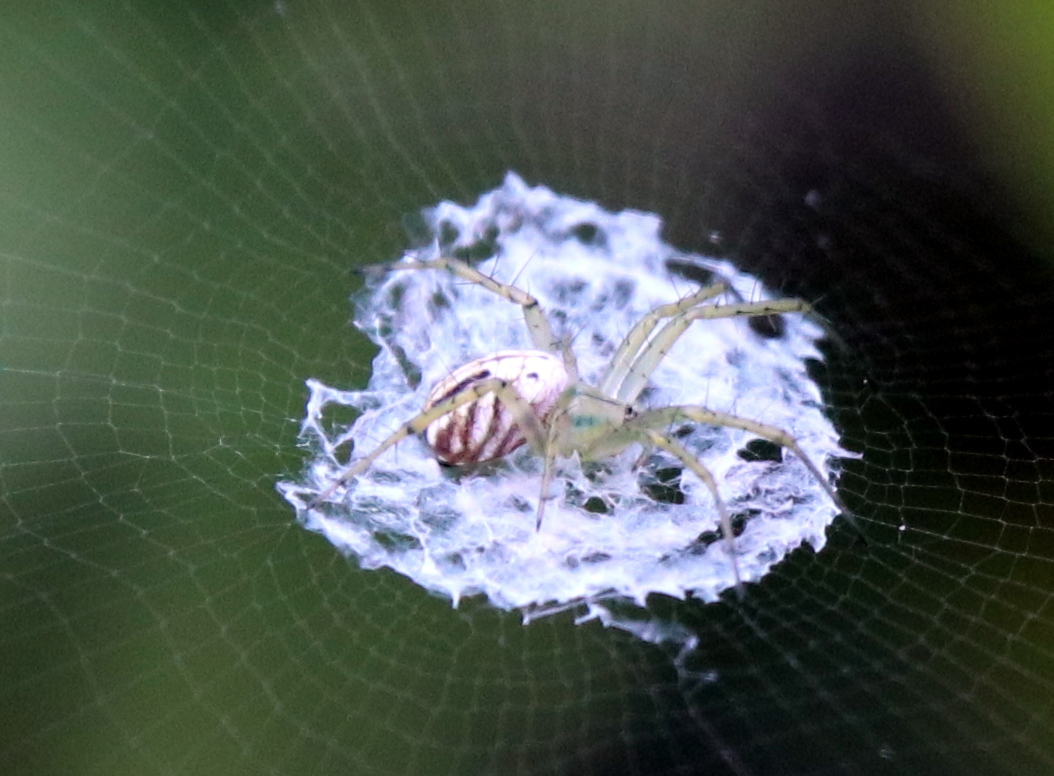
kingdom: Animalia
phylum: Arthropoda
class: Arachnida
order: Araneae
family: Araneidae
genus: Mangora
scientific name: Mangora gibberosa
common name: Lined orbweaver
